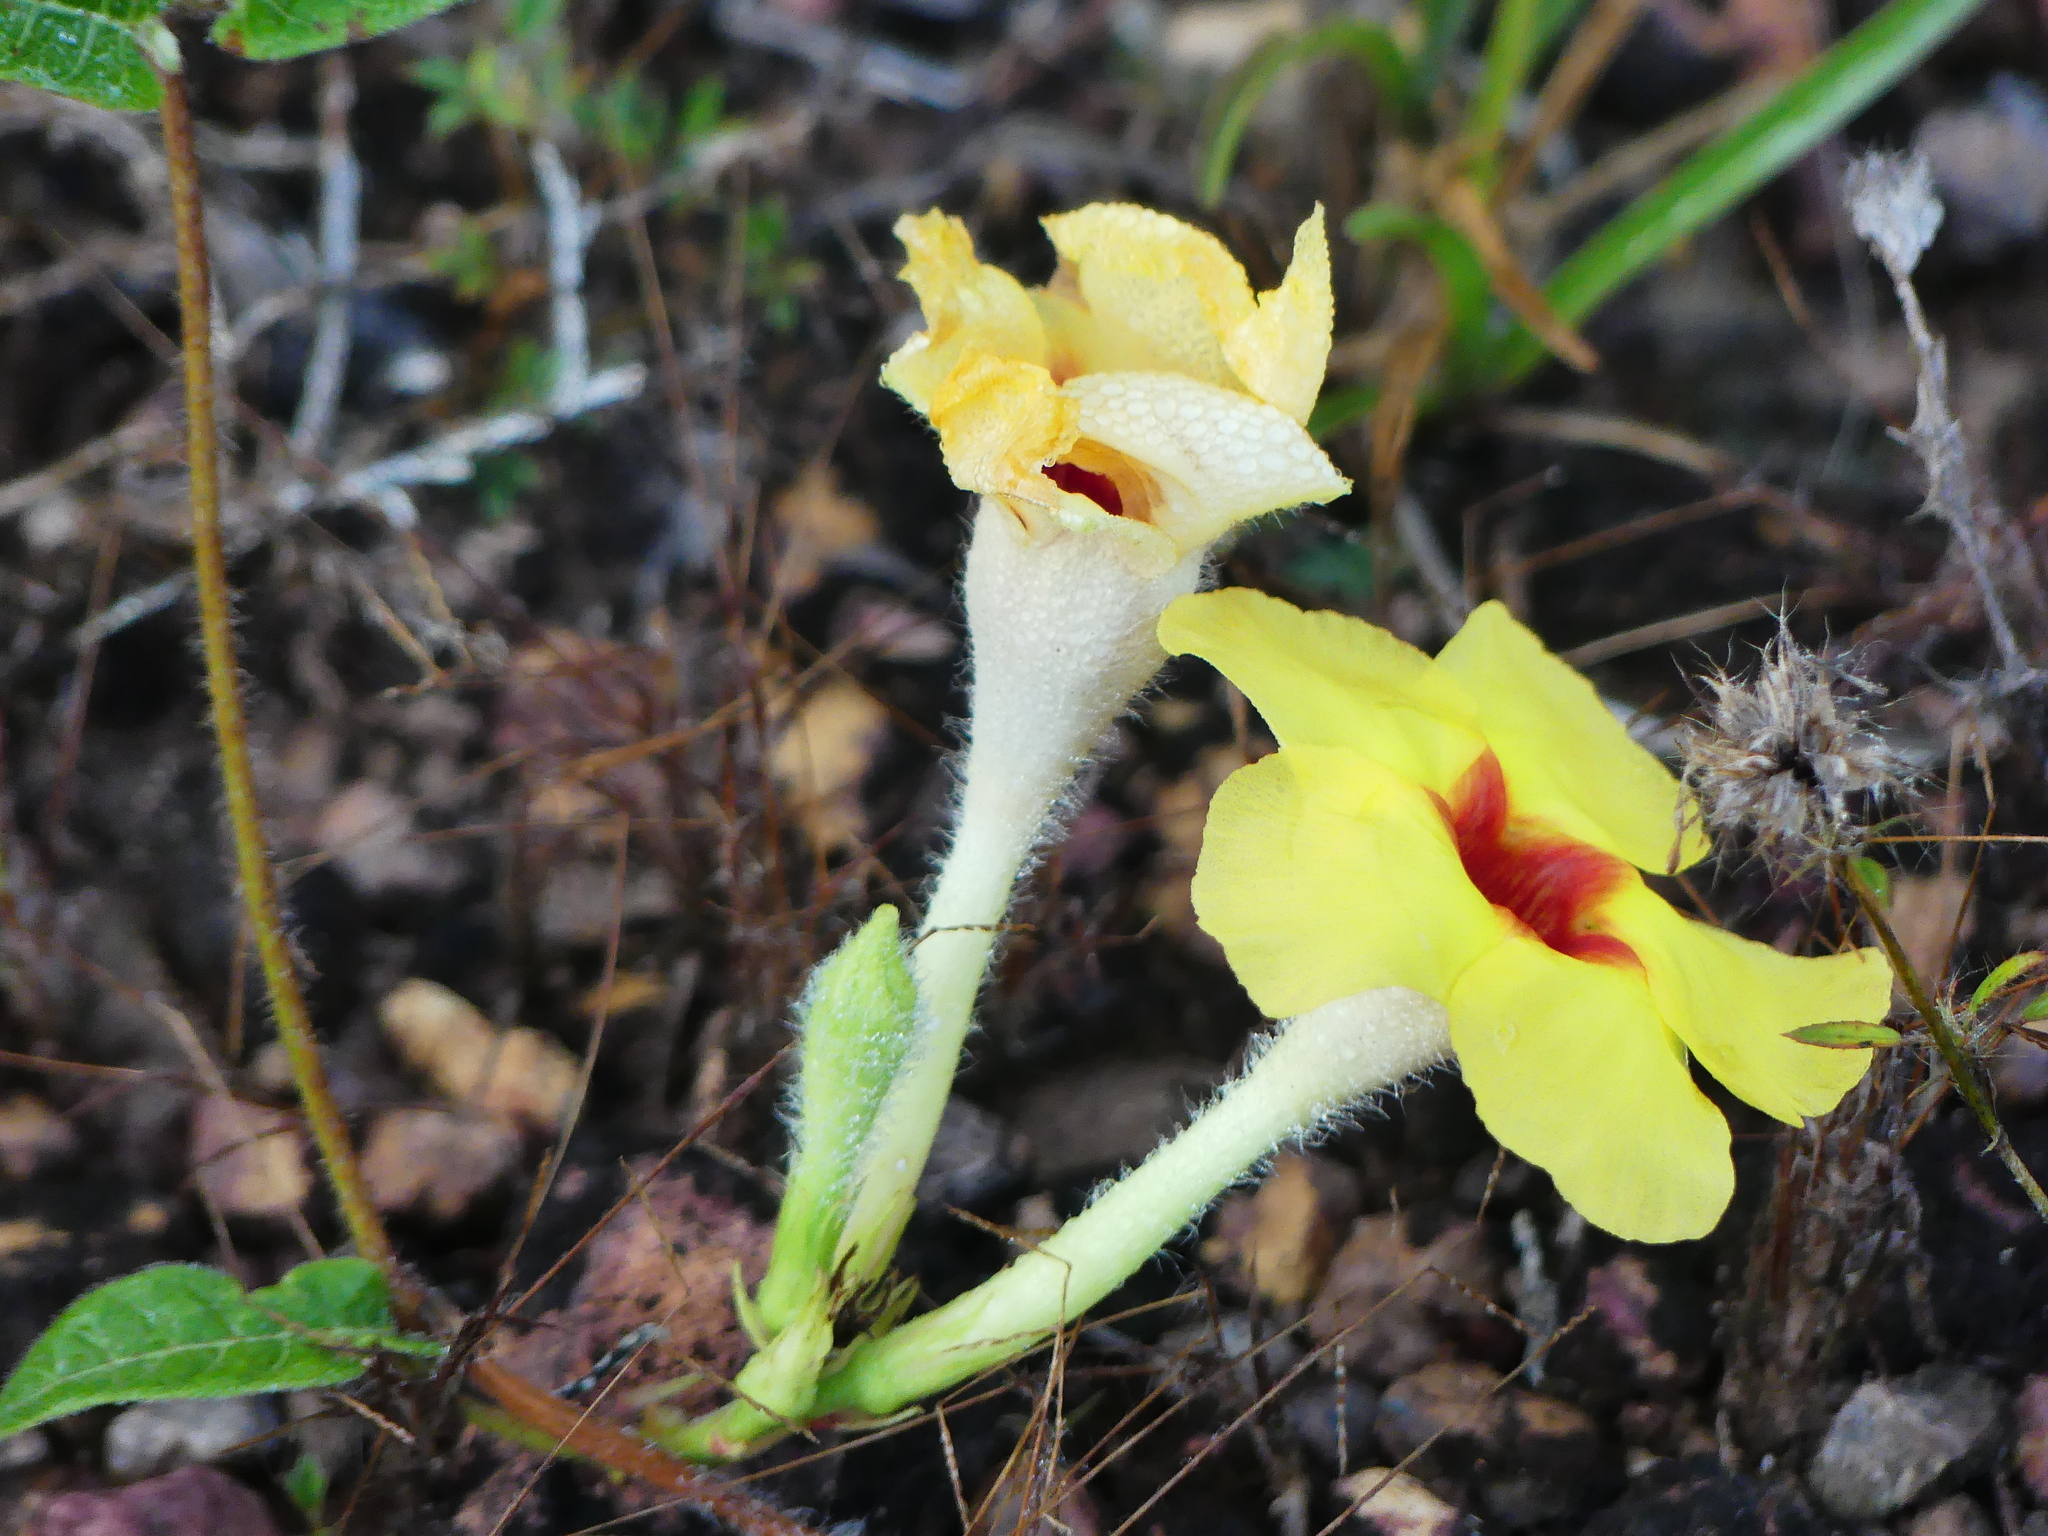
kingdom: Plantae
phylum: Tracheophyta
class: Magnoliopsida
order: Gentianales
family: Apocynaceae
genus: Mandevilla
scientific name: Mandevilla hirsuta
